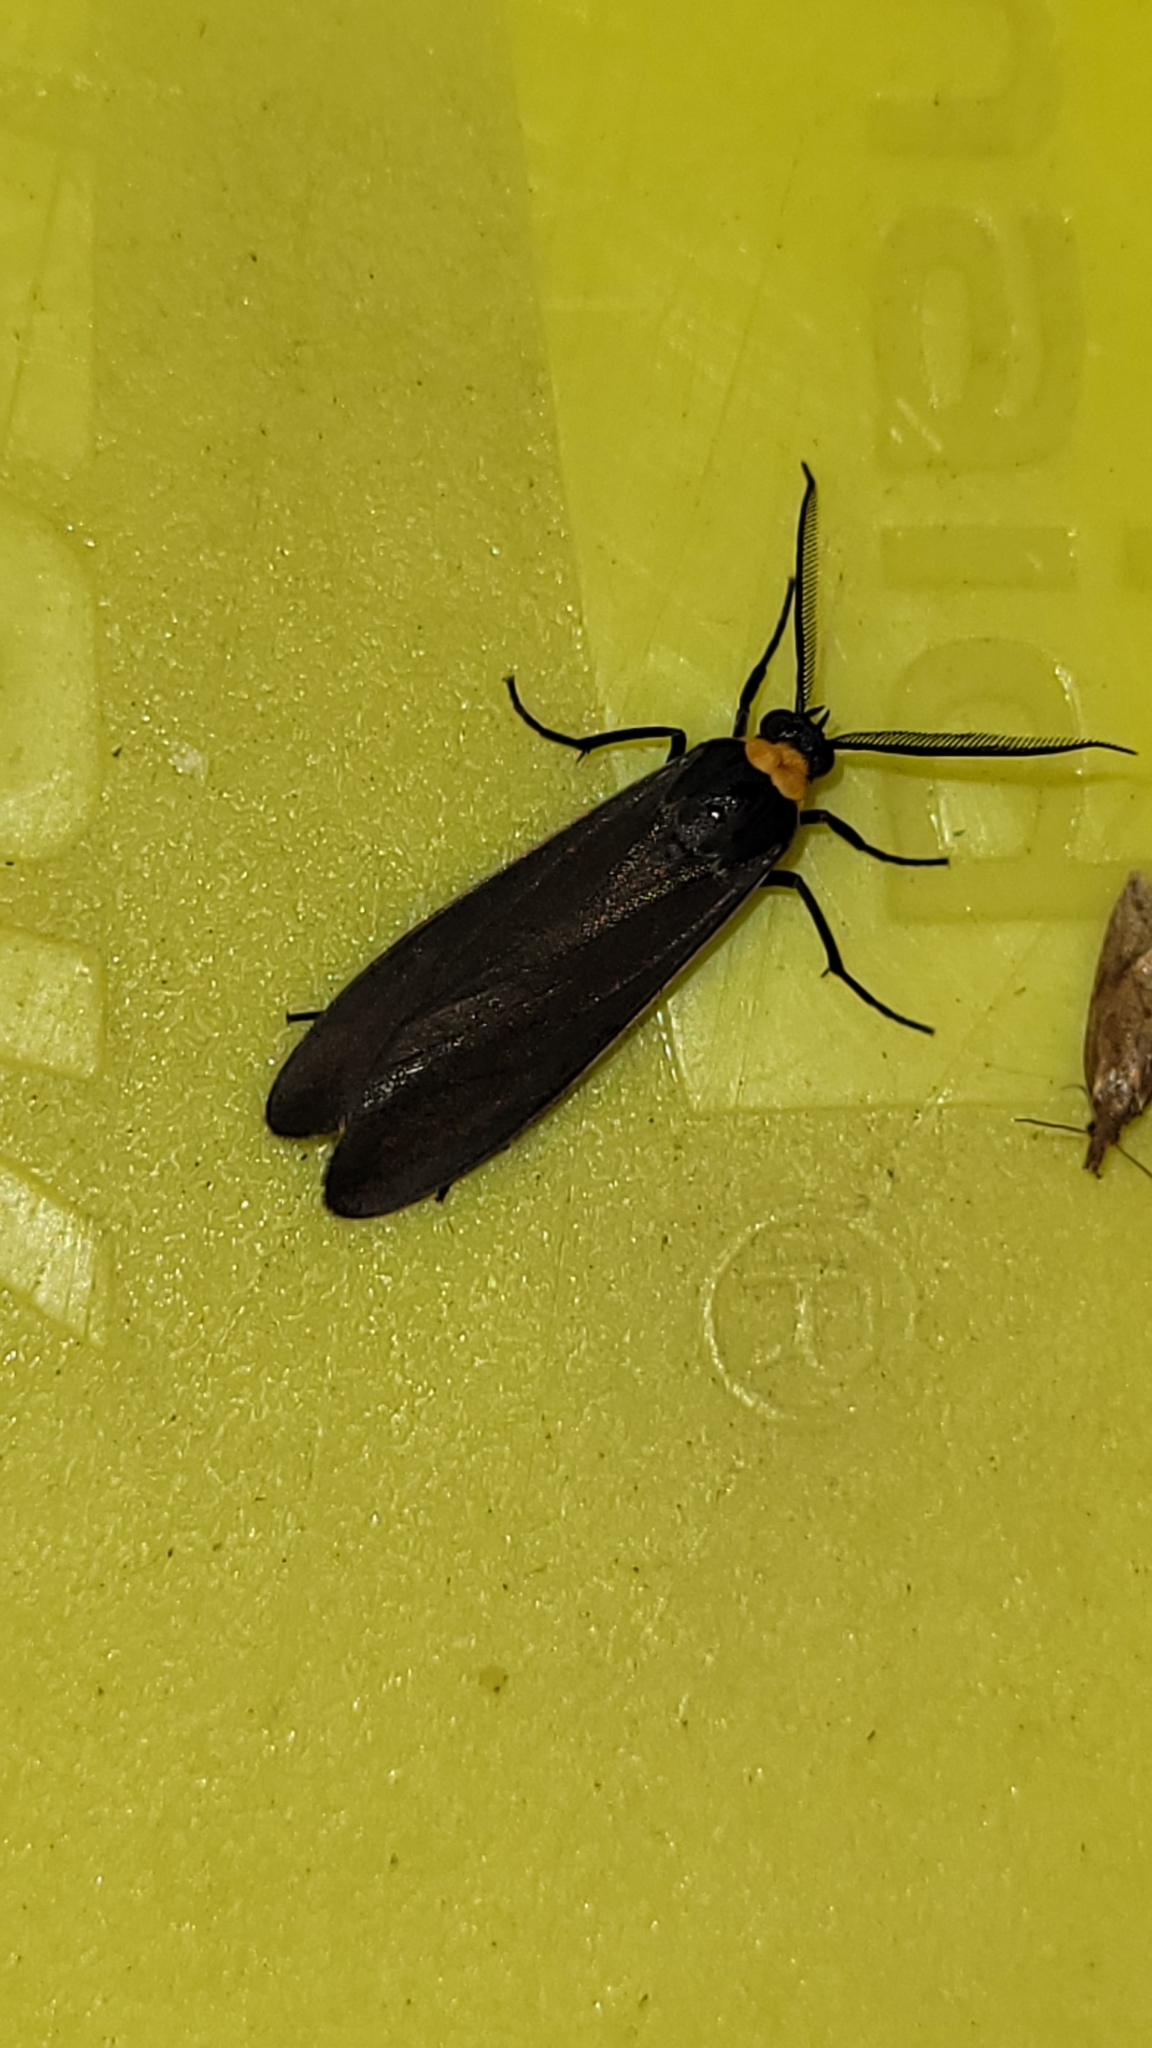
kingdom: Animalia
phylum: Arthropoda
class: Insecta
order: Lepidoptera
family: Erebidae
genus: Cisseps
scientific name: Cisseps fulvicollis
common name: Yellow-collared scape moth
